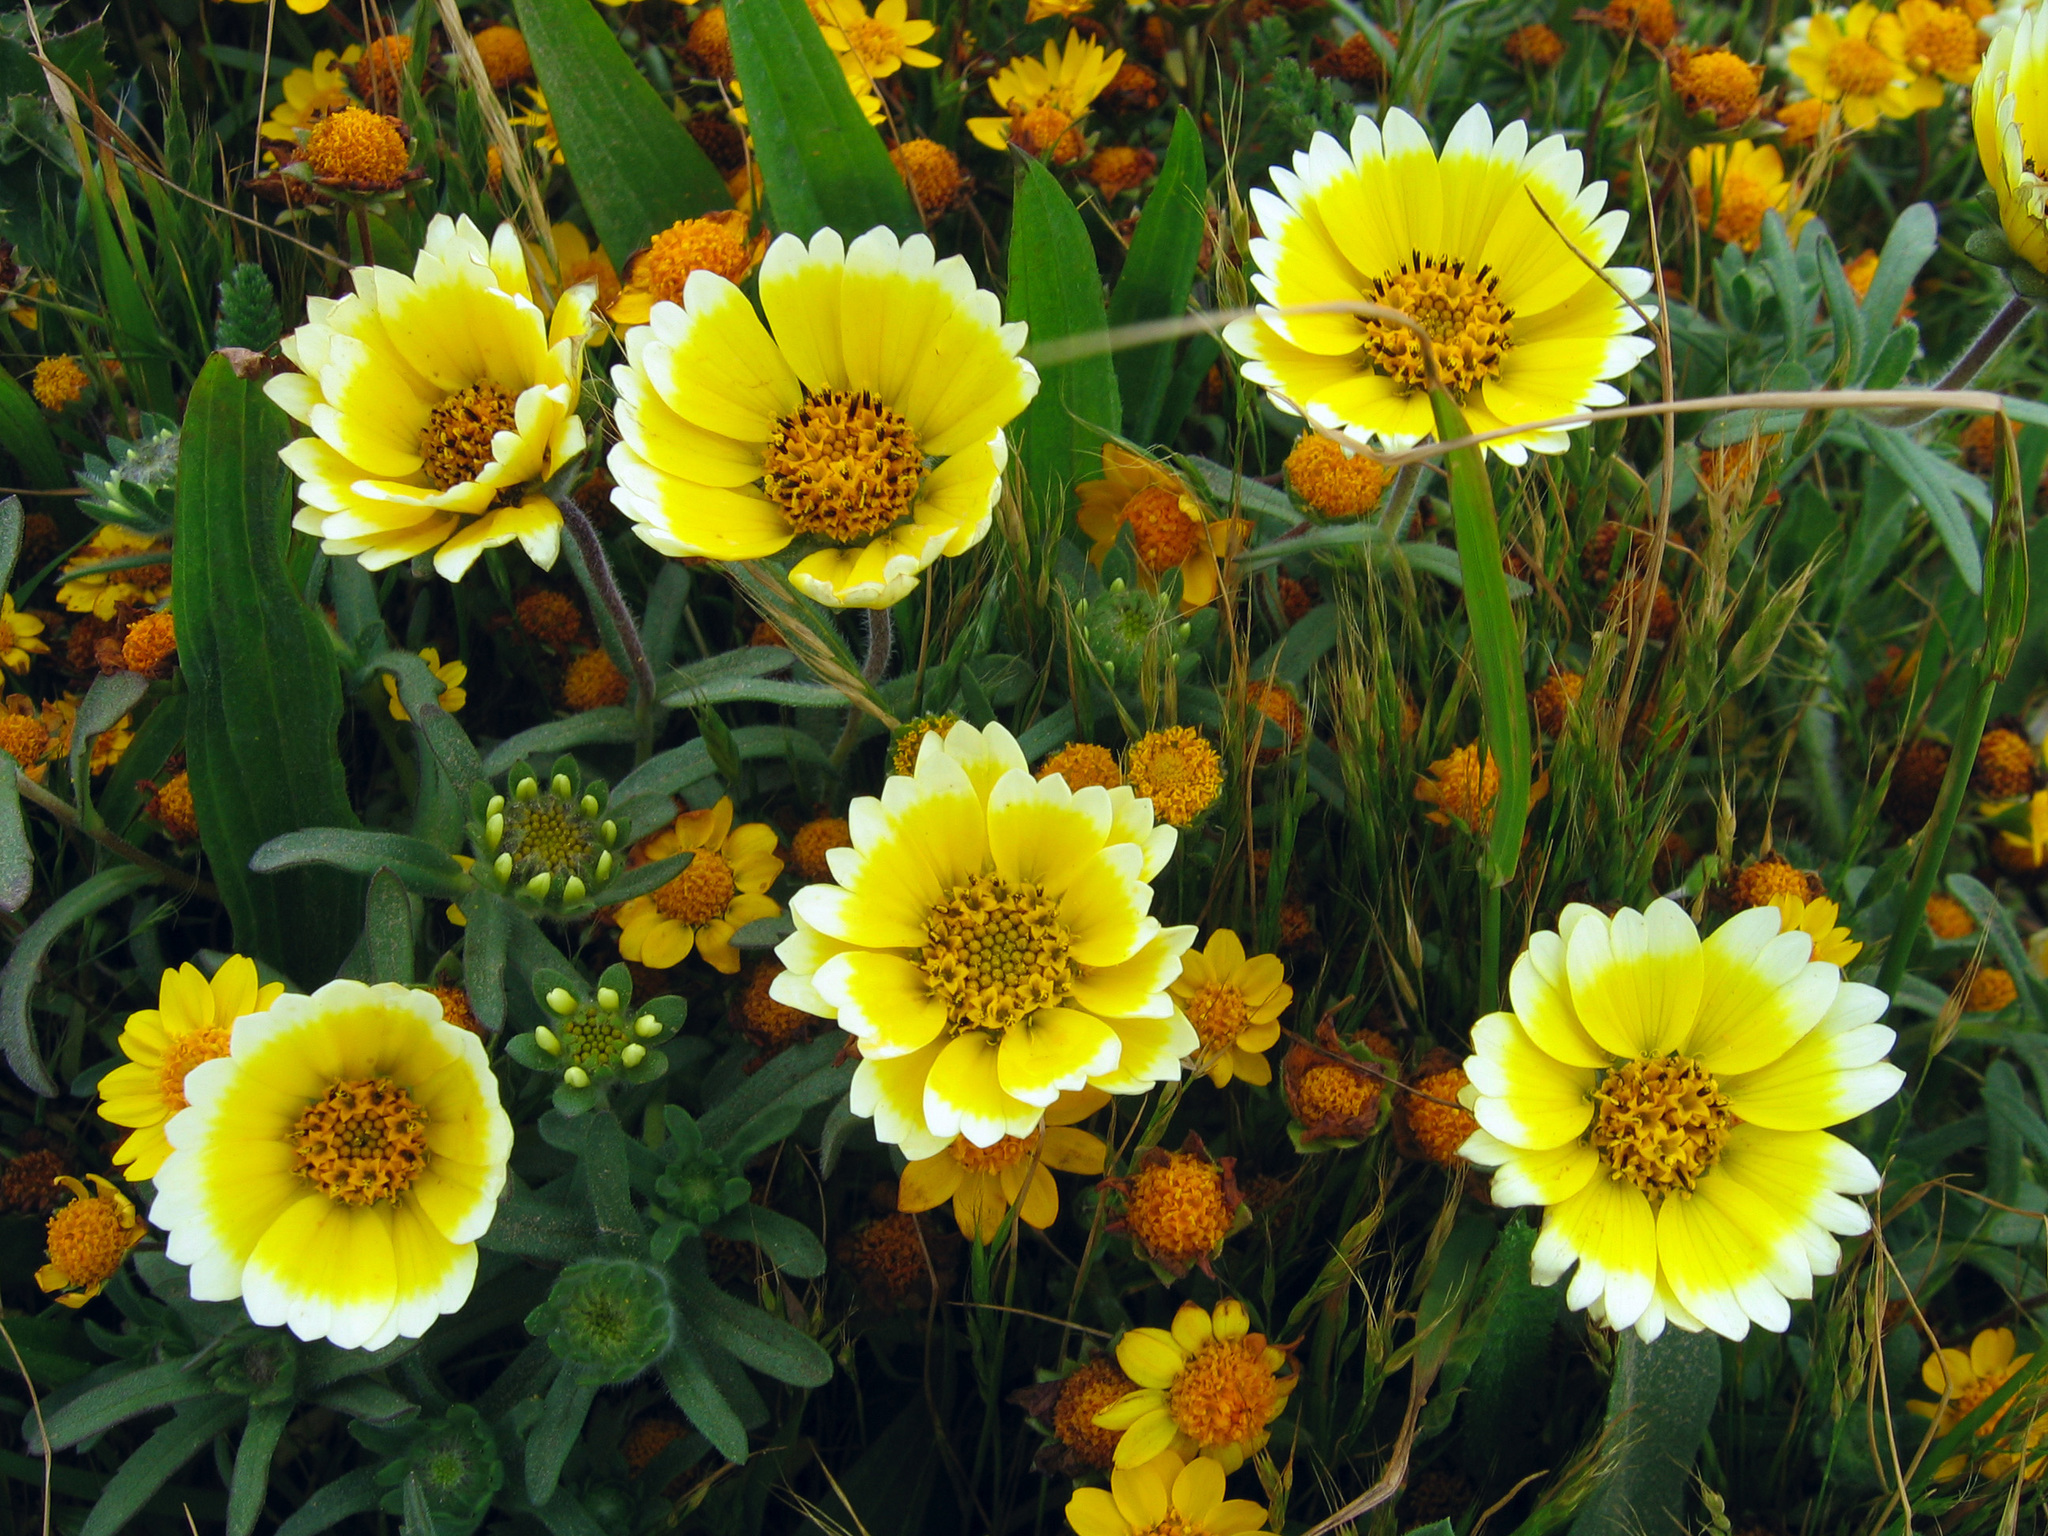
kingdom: Plantae
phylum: Tracheophyta
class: Magnoliopsida
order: Asterales
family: Asteraceae
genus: Layia
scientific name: Layia platyglossa
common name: Tidy-tips
